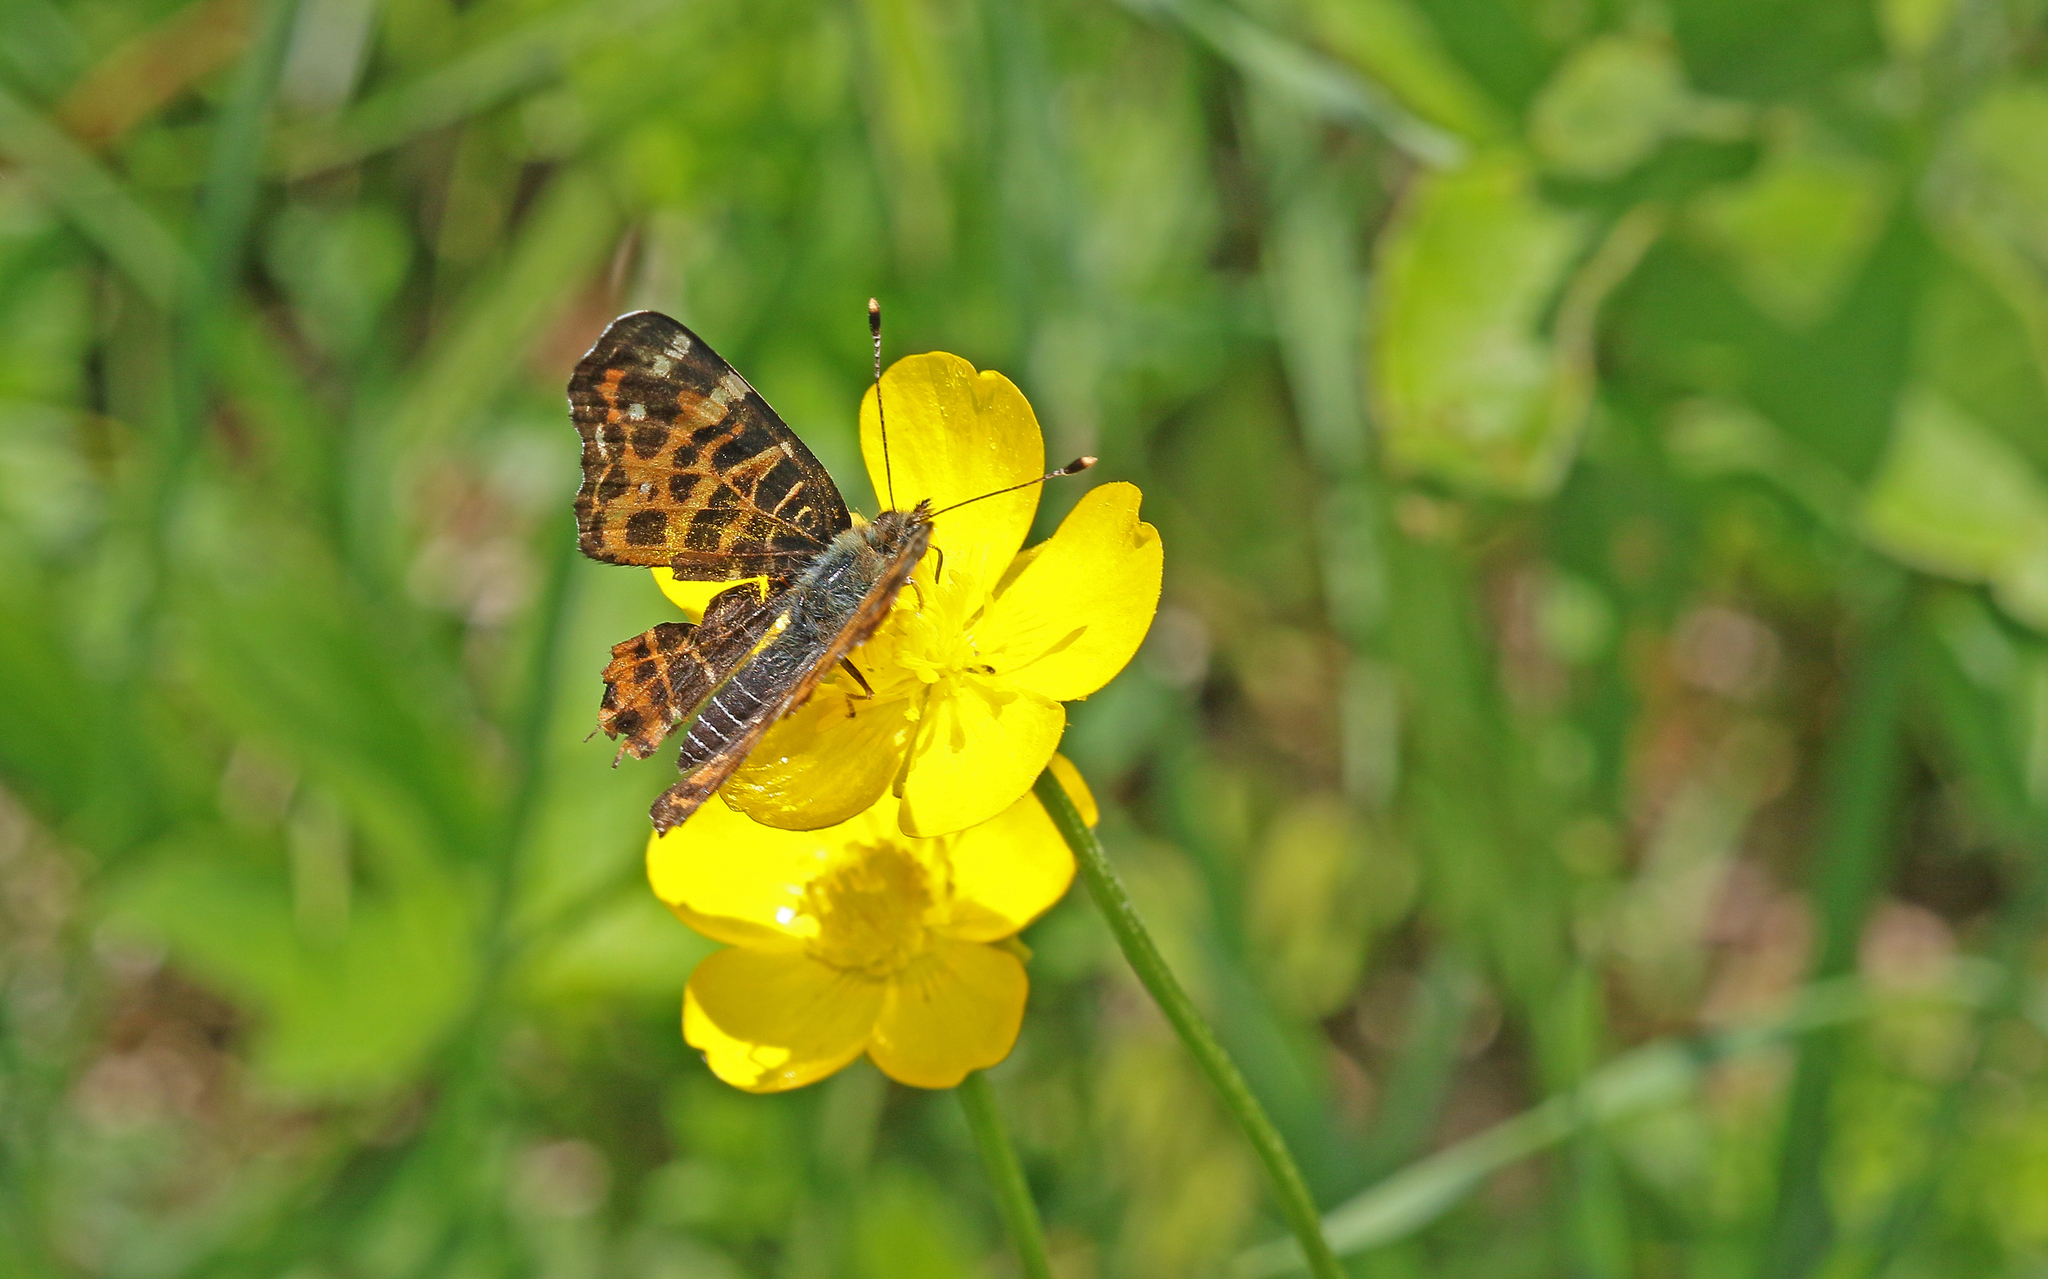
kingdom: Animalia
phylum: Arthropoda
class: Insecta
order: Lepidoptera
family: Nymphalidae
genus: Araschnia
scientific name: Araschnia levana
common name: Map butterfly
